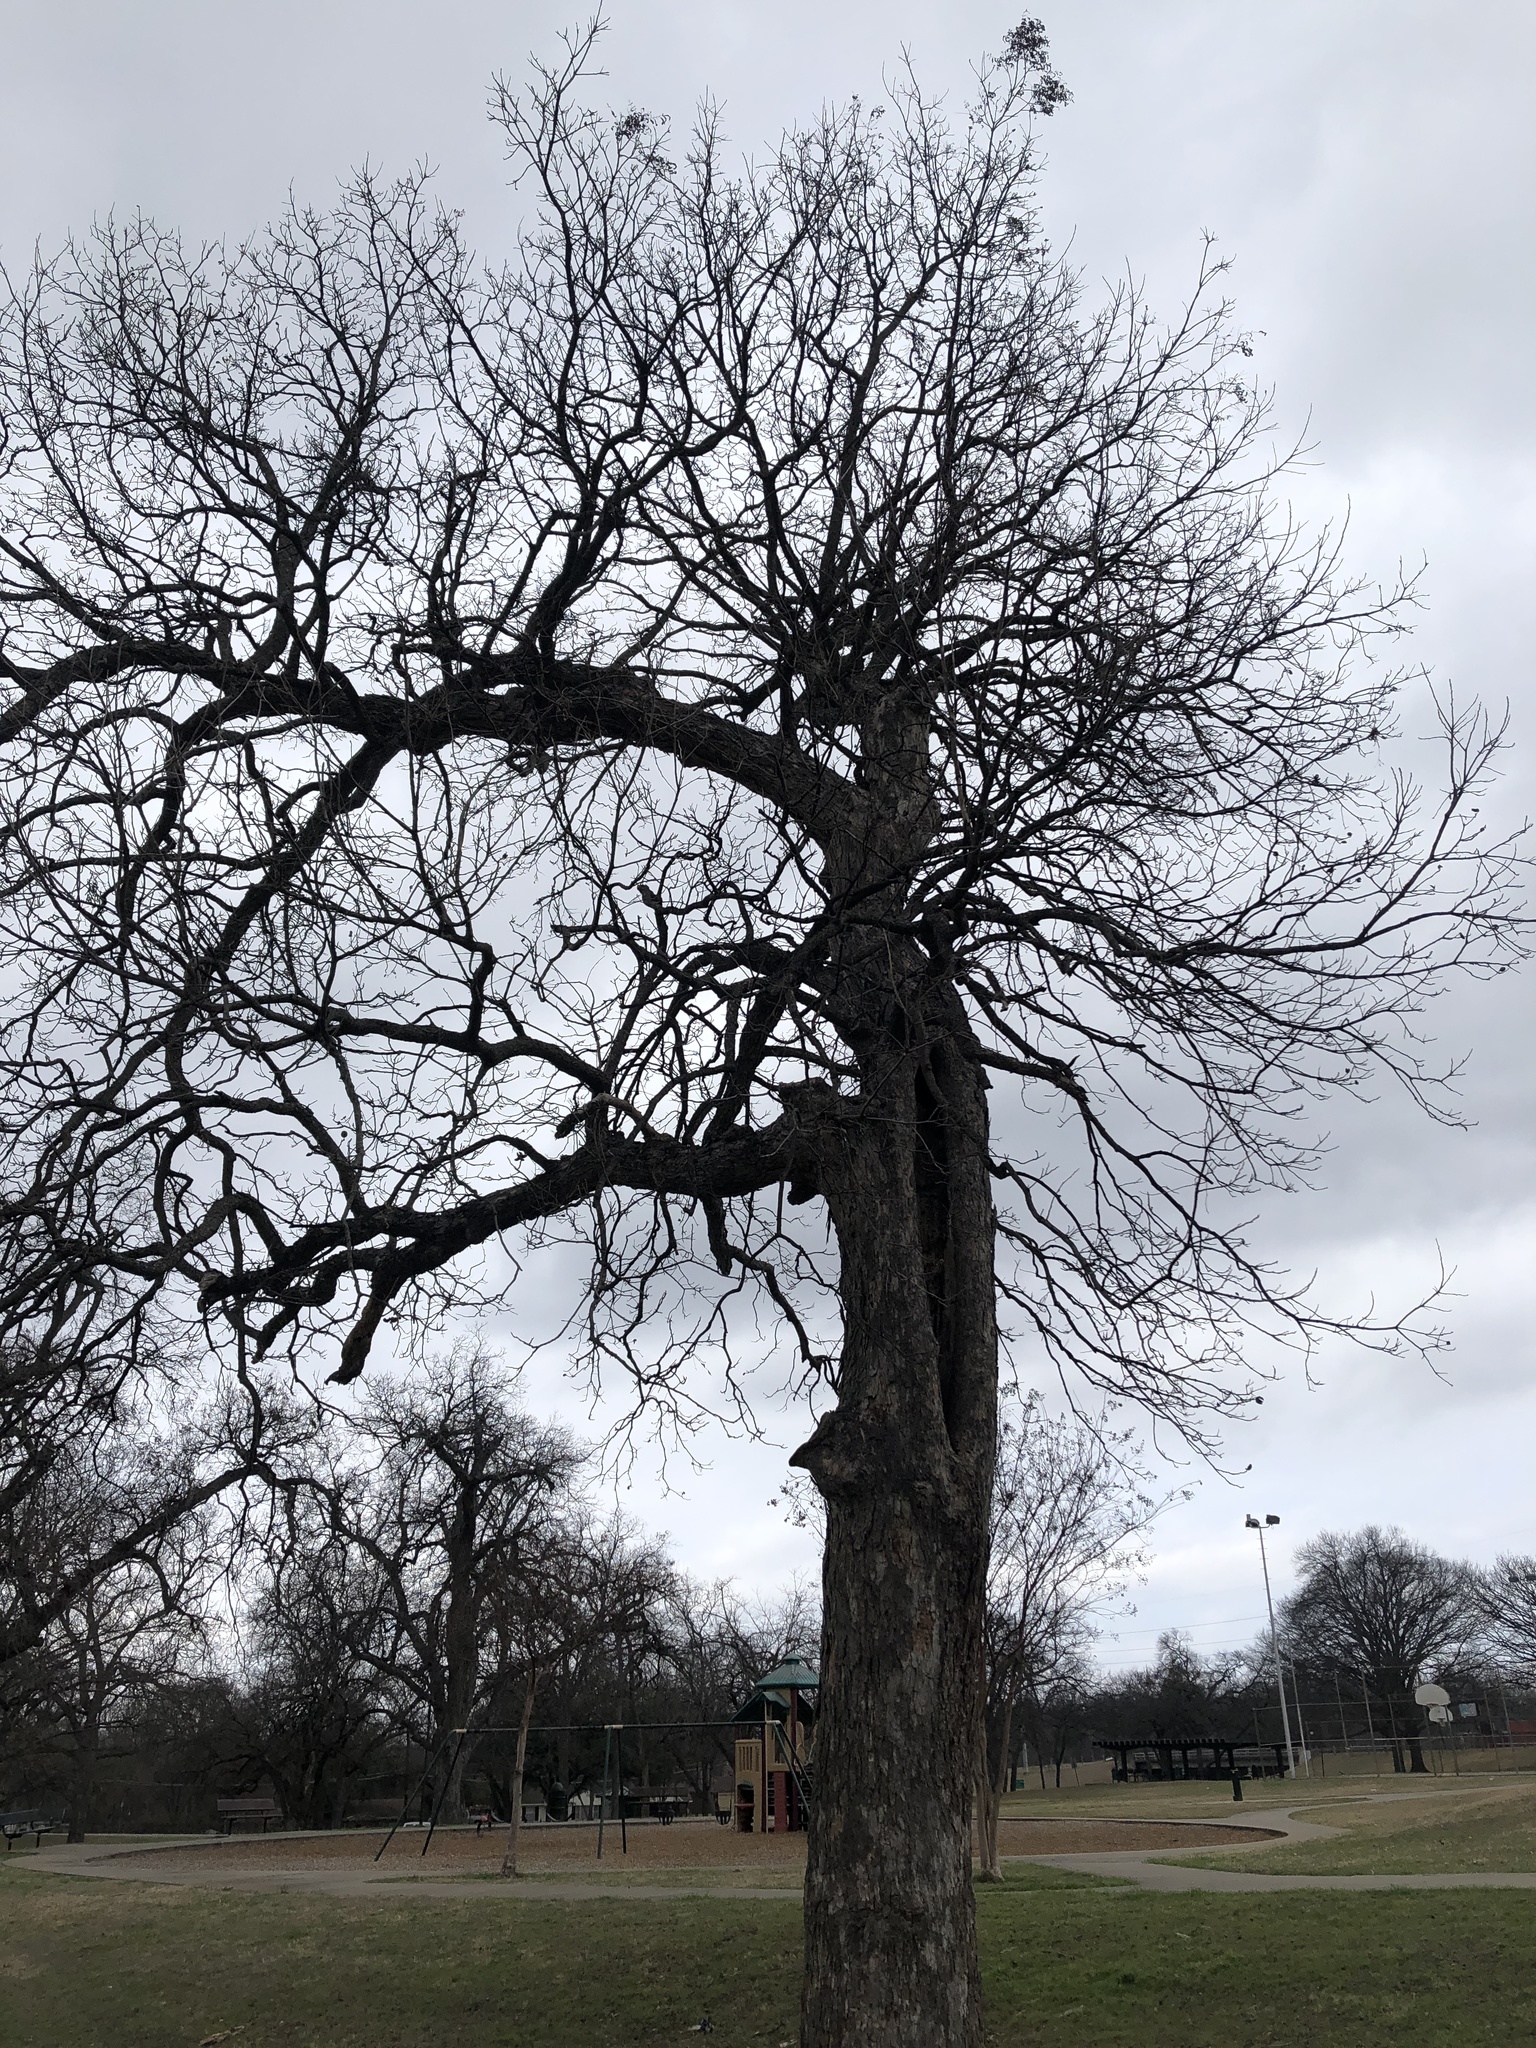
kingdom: Plantae
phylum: Tracheophyta
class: Magnoliopsida
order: Fagales
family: Juglandaceae
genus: Carya
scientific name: Carya illinoinensis
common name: Pecan
